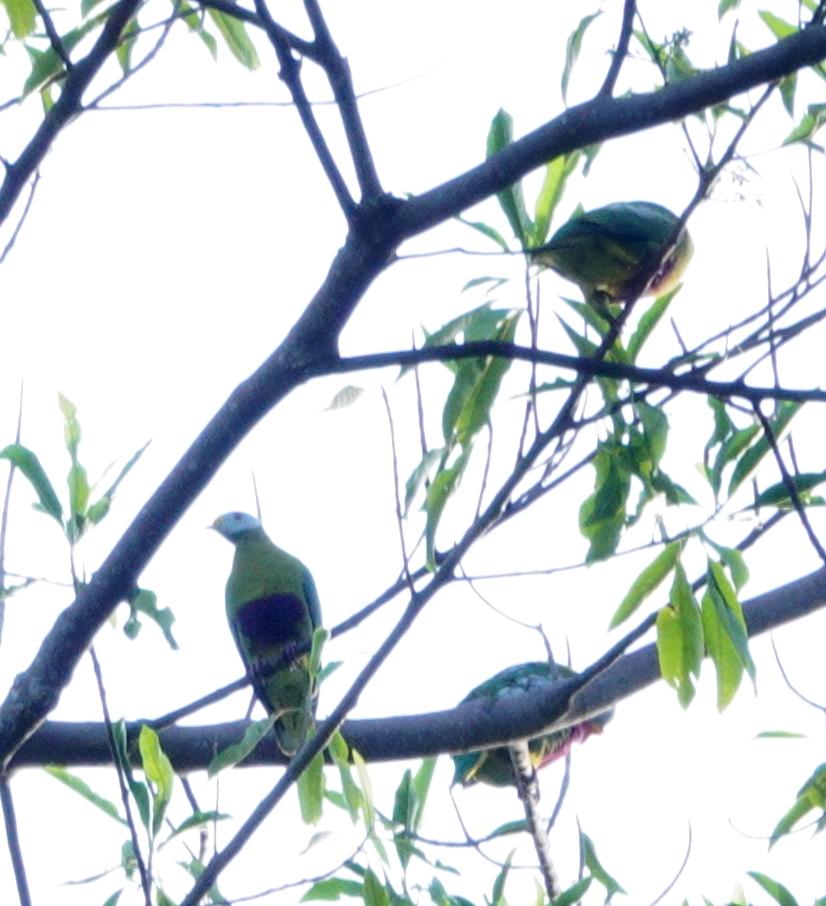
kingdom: Animalia
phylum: Chordata
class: Aves
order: Columbiformes
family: Columbidae
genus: Ptilinopus
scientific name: Ptilinopus granulifrons
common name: Carunculated fruit dove
